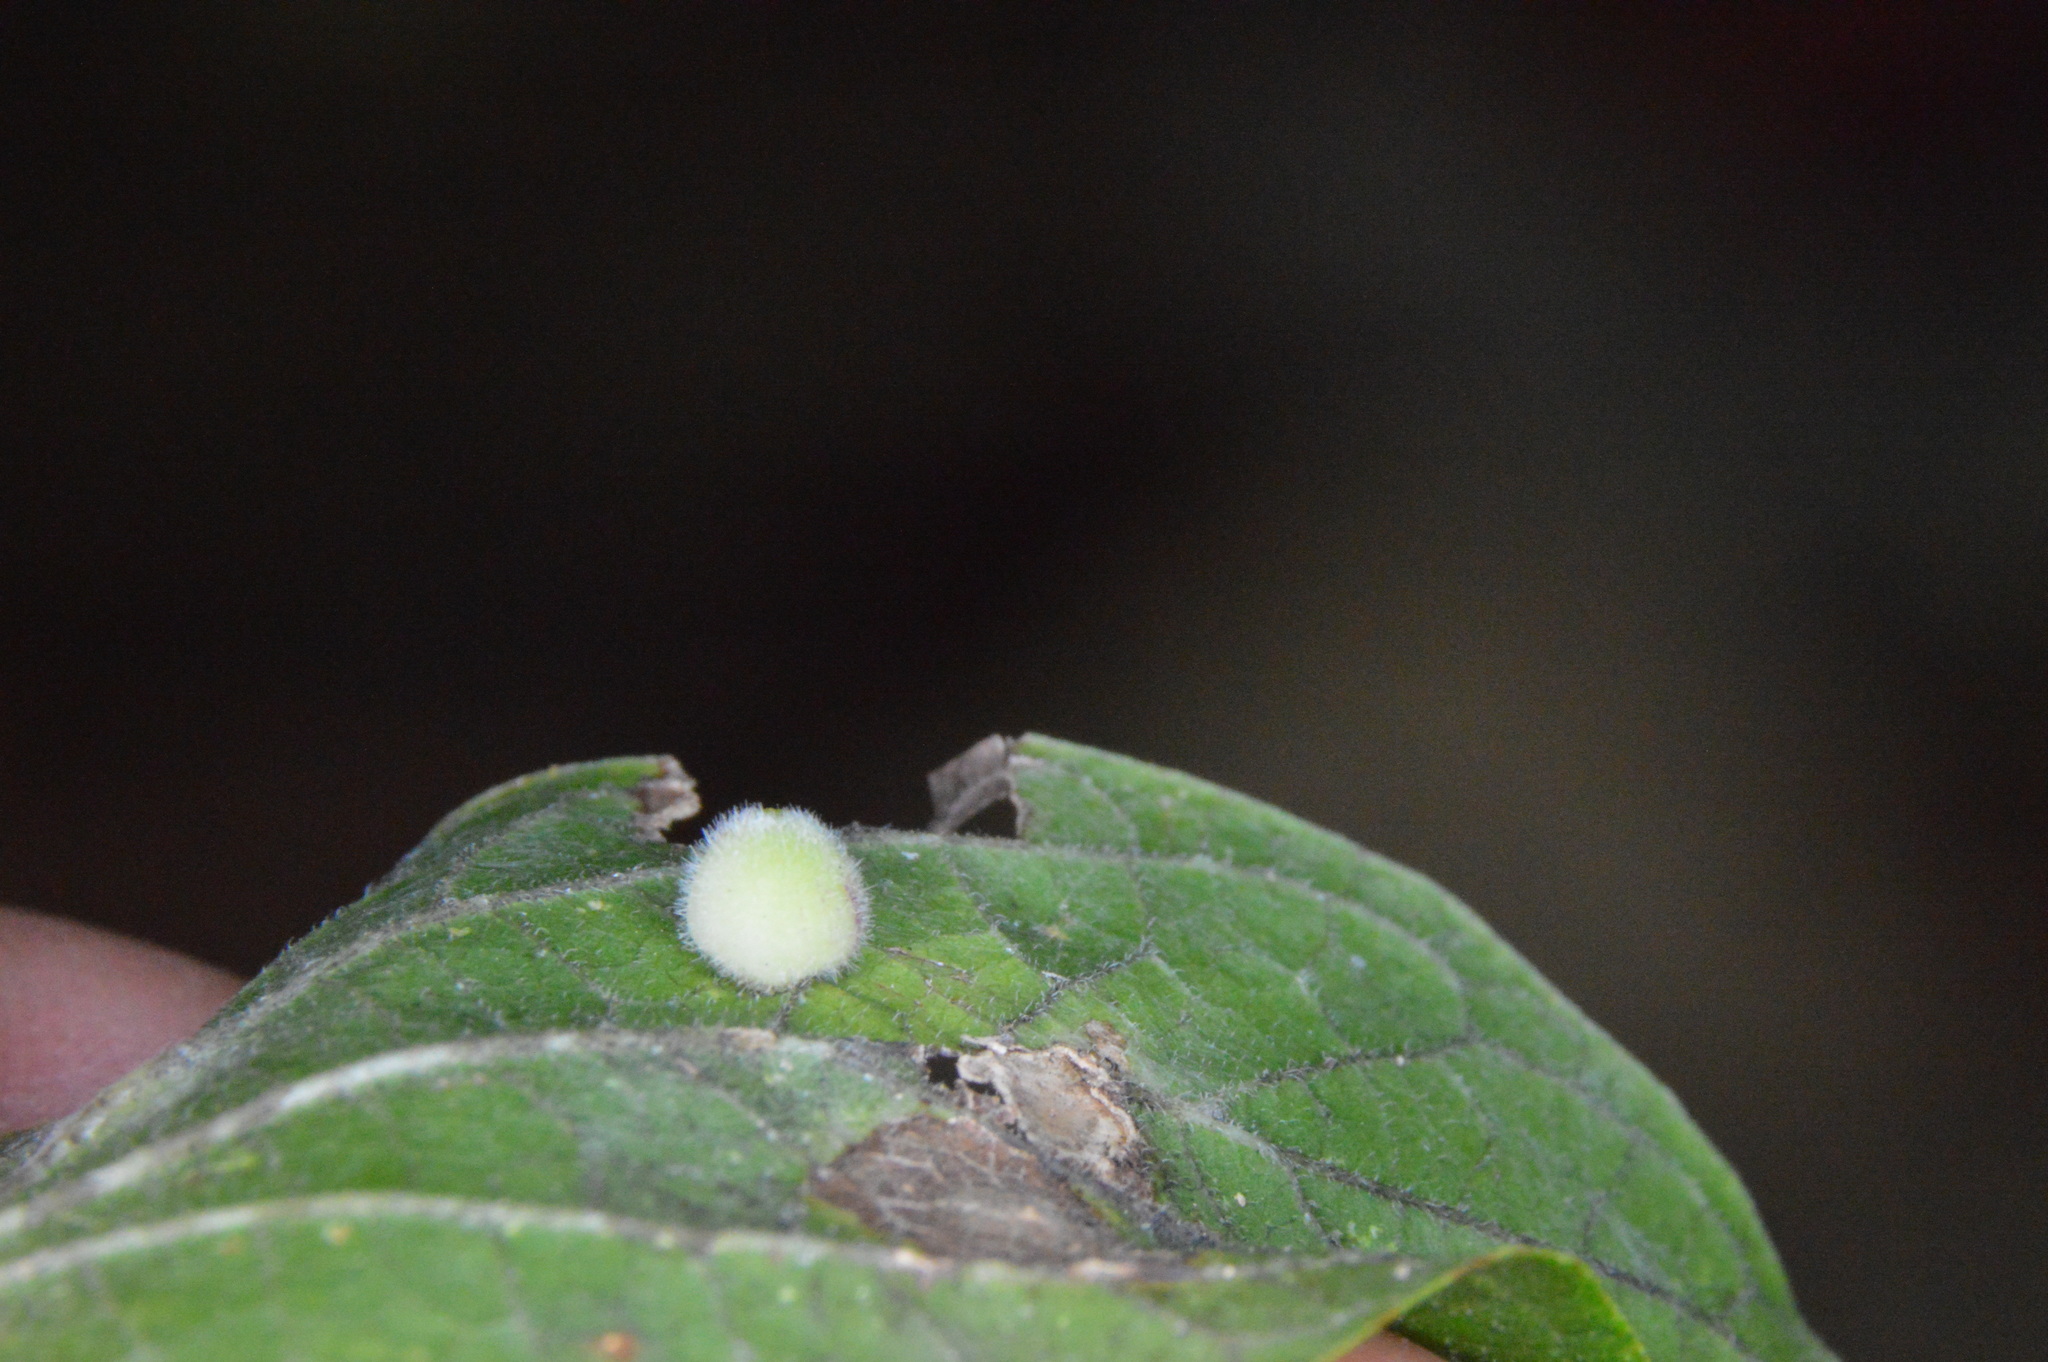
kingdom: Animalia
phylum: Arthropoda
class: Insecta
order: Diptera
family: Cecidomyiidae
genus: Celticecis
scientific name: Celticecis globosa
